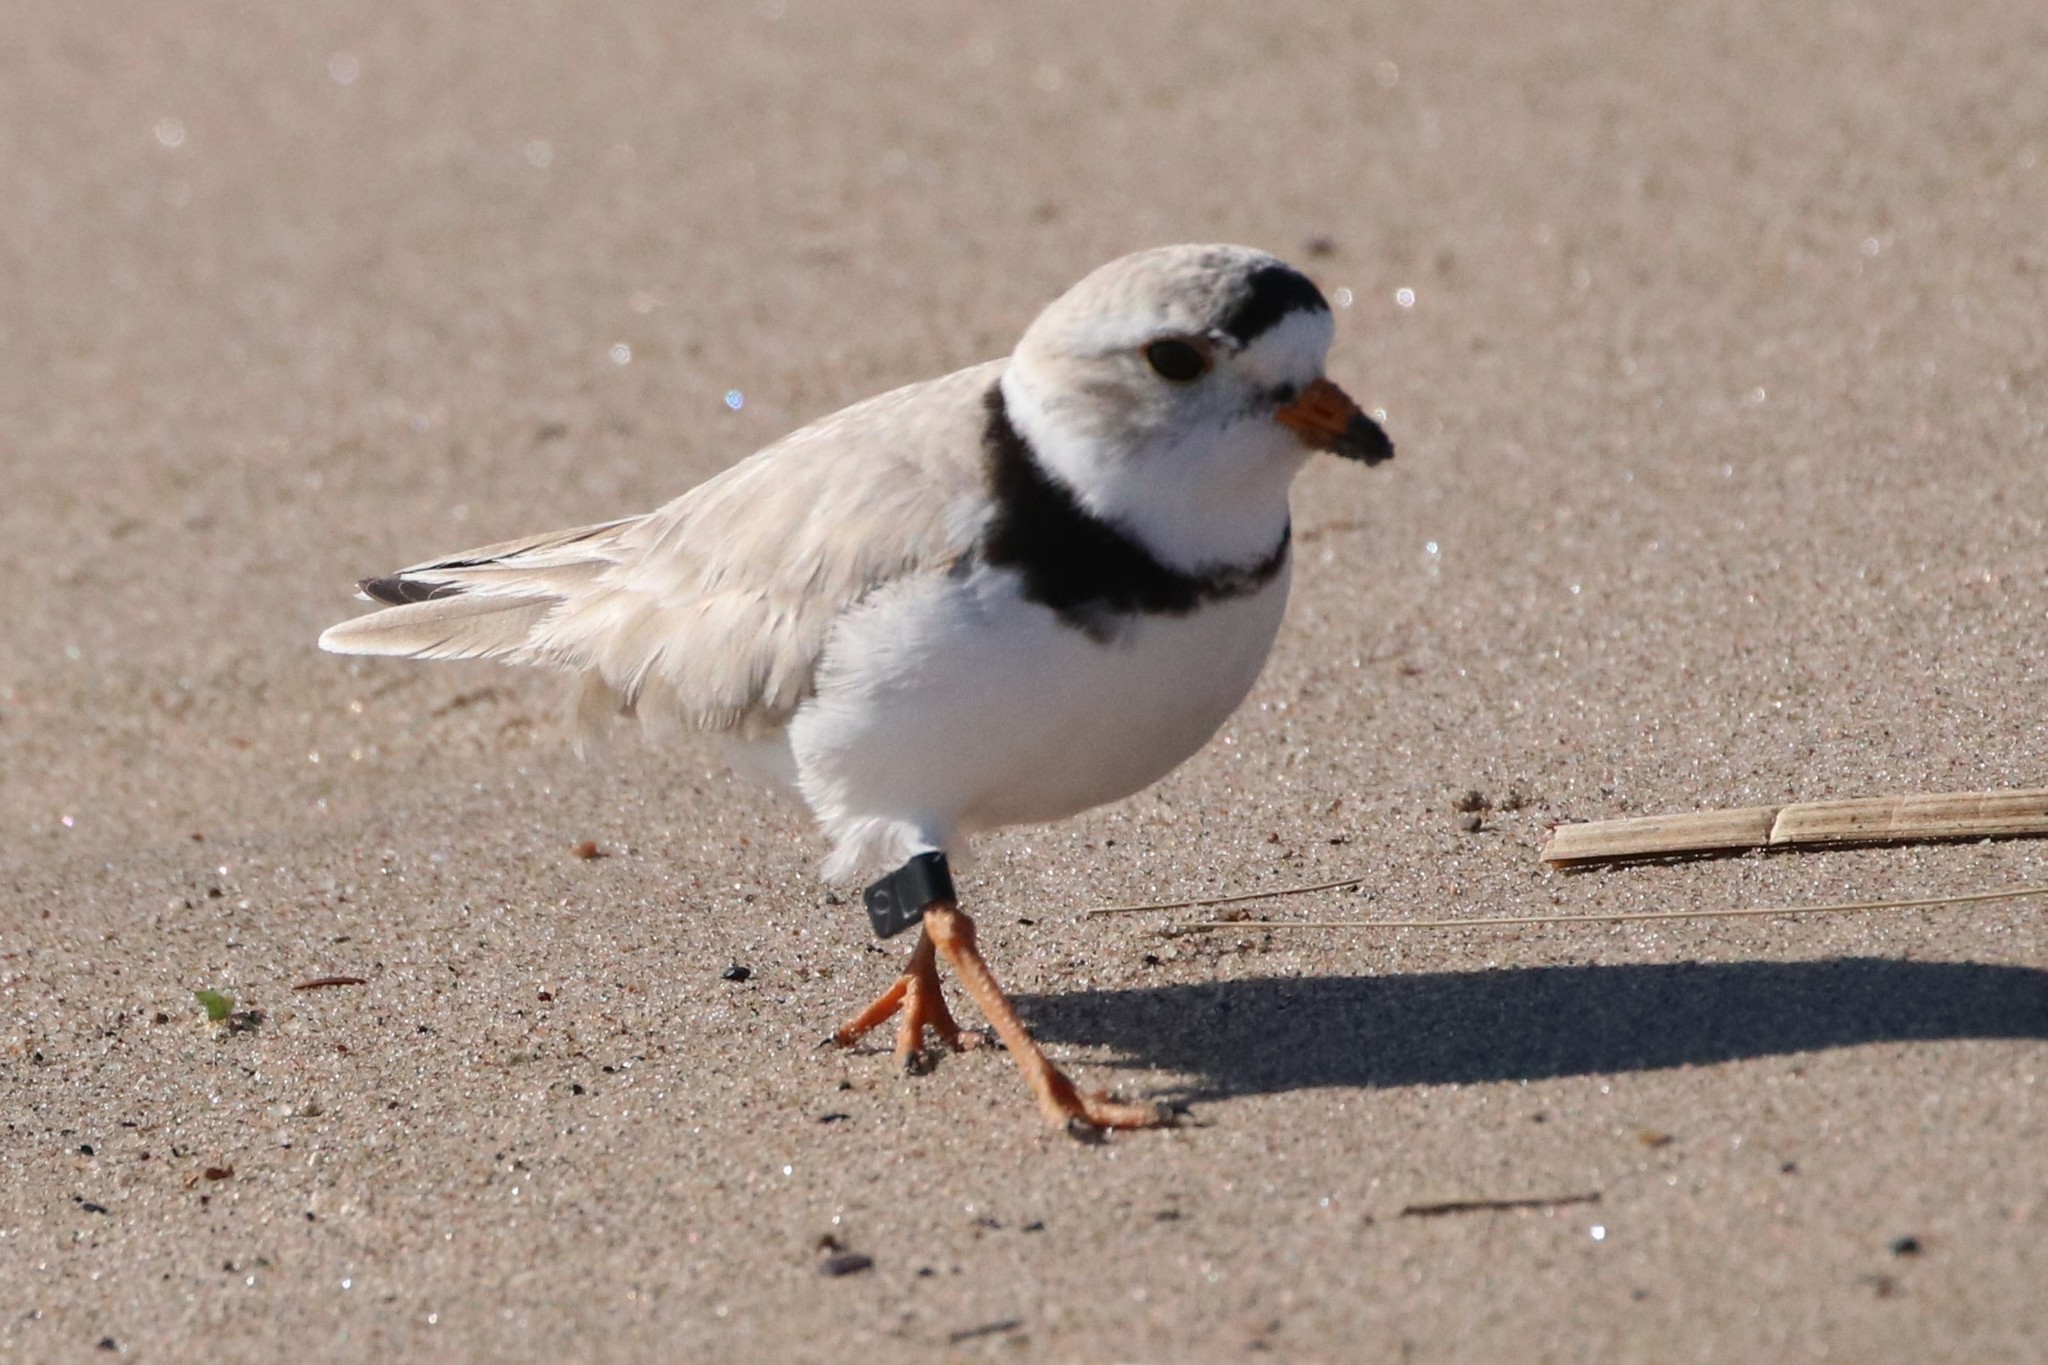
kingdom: Animalia
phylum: Chordata
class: Aves
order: Charadriiformes
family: Charadriidae
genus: Charadrius
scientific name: Charadrius melodus
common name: Piping plover
